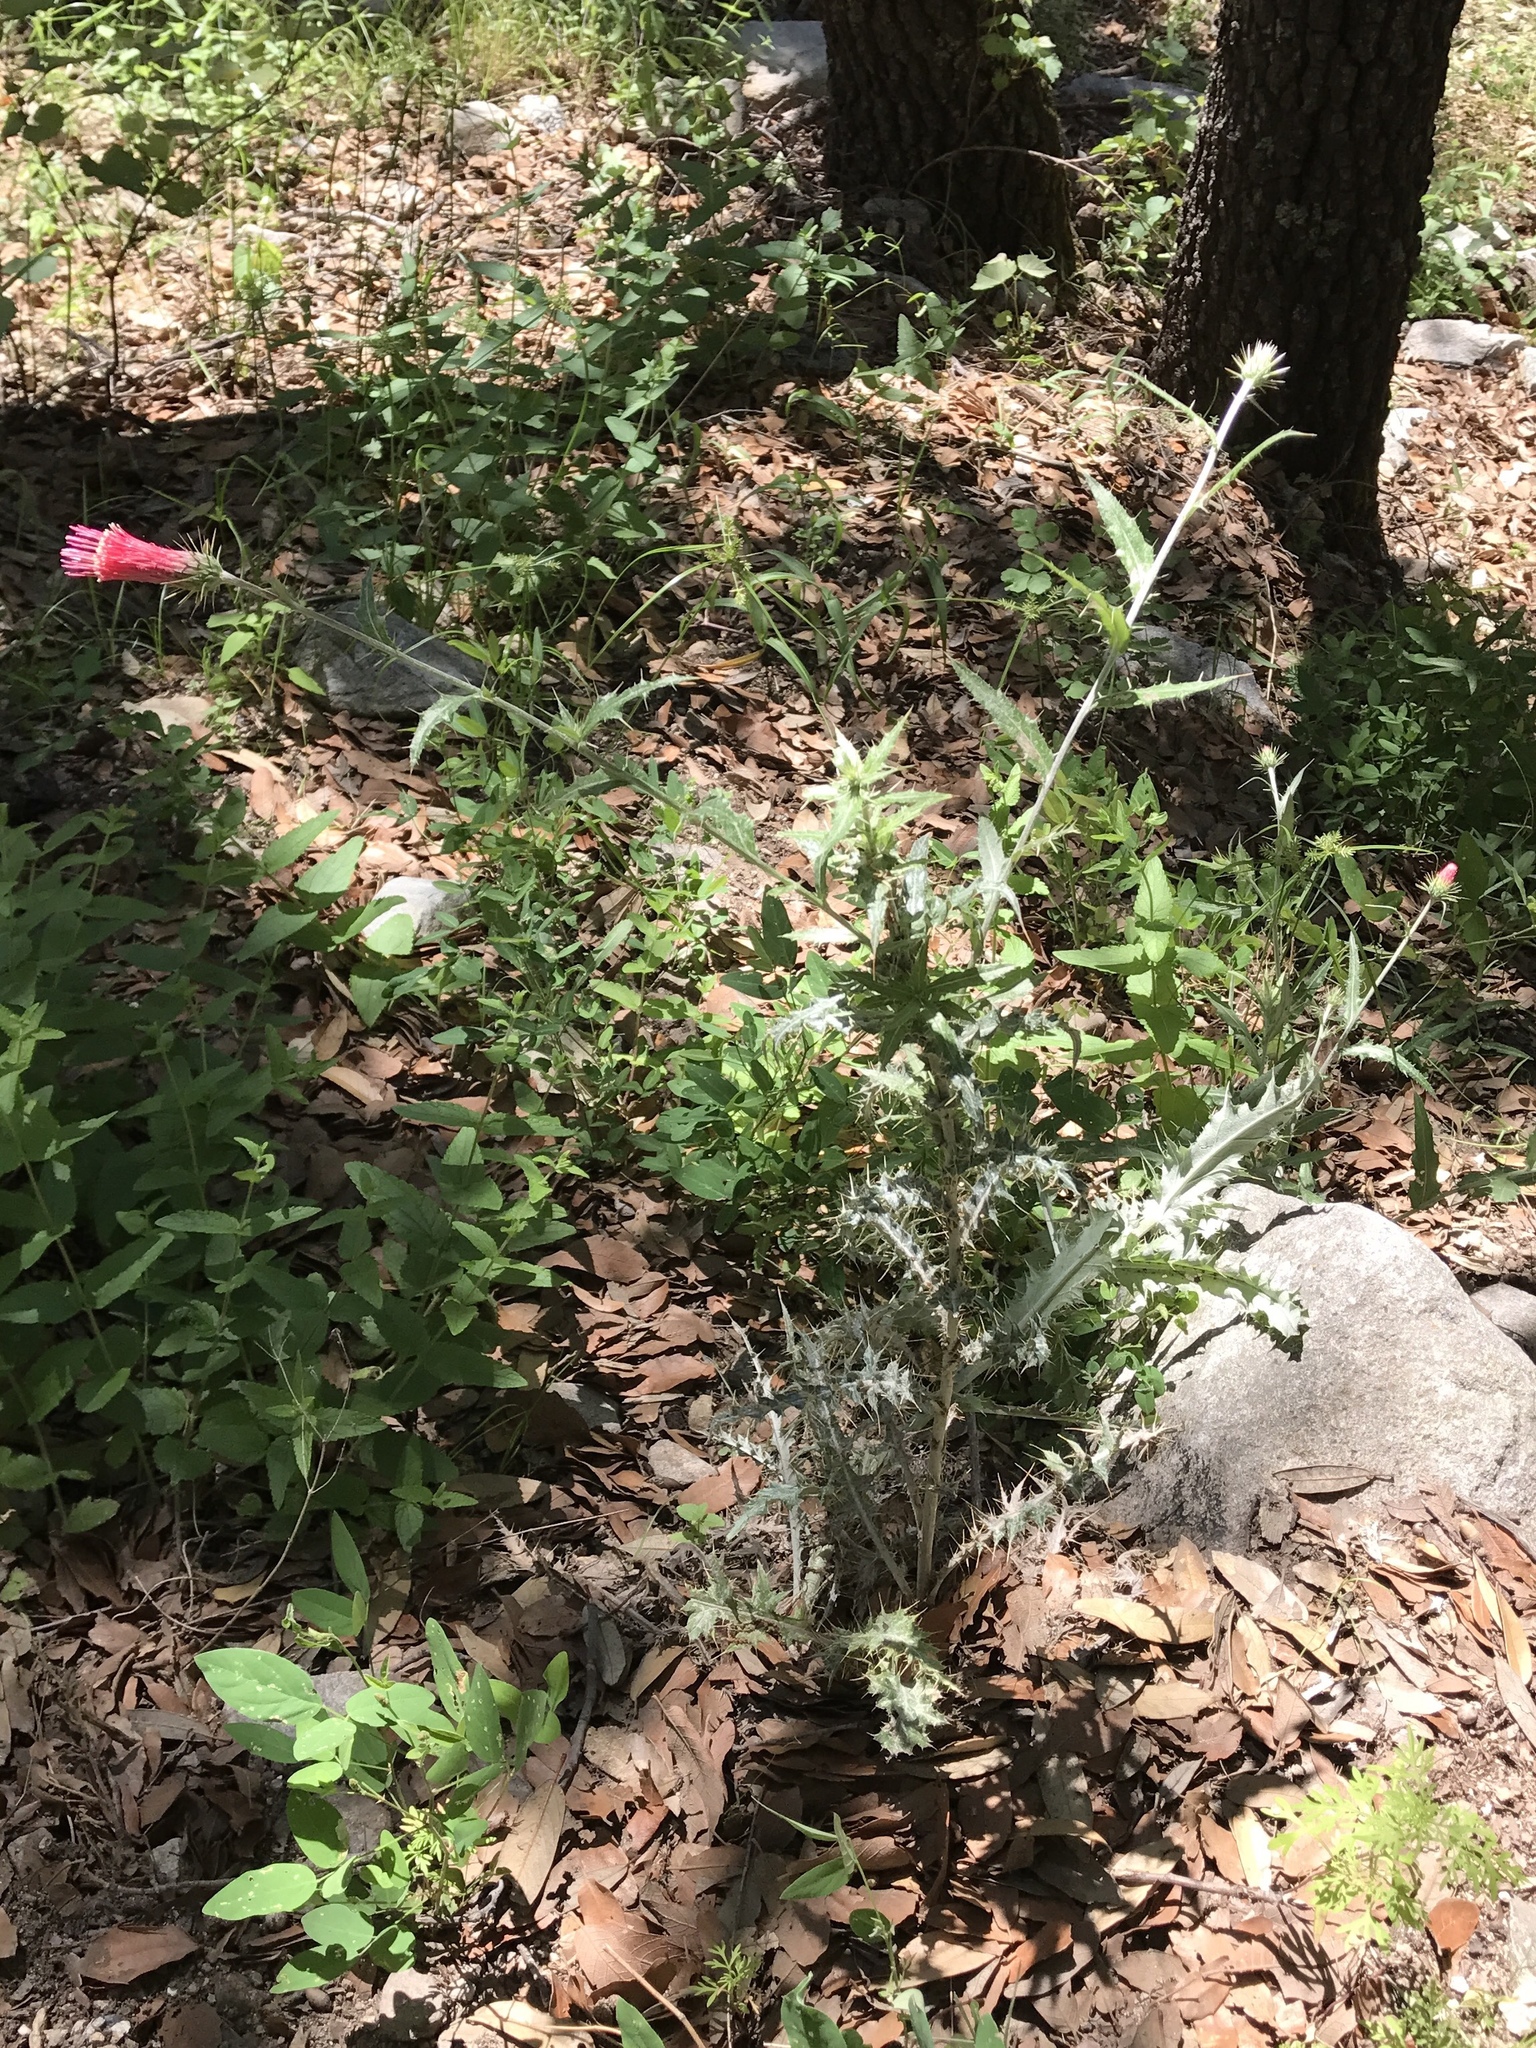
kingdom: Plantae
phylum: Tracheophyta
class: Magnoliopsida
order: Asterales
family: Asteraceae
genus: Cirsium
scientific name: Cirsium arizonicum
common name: Arizona thistle
